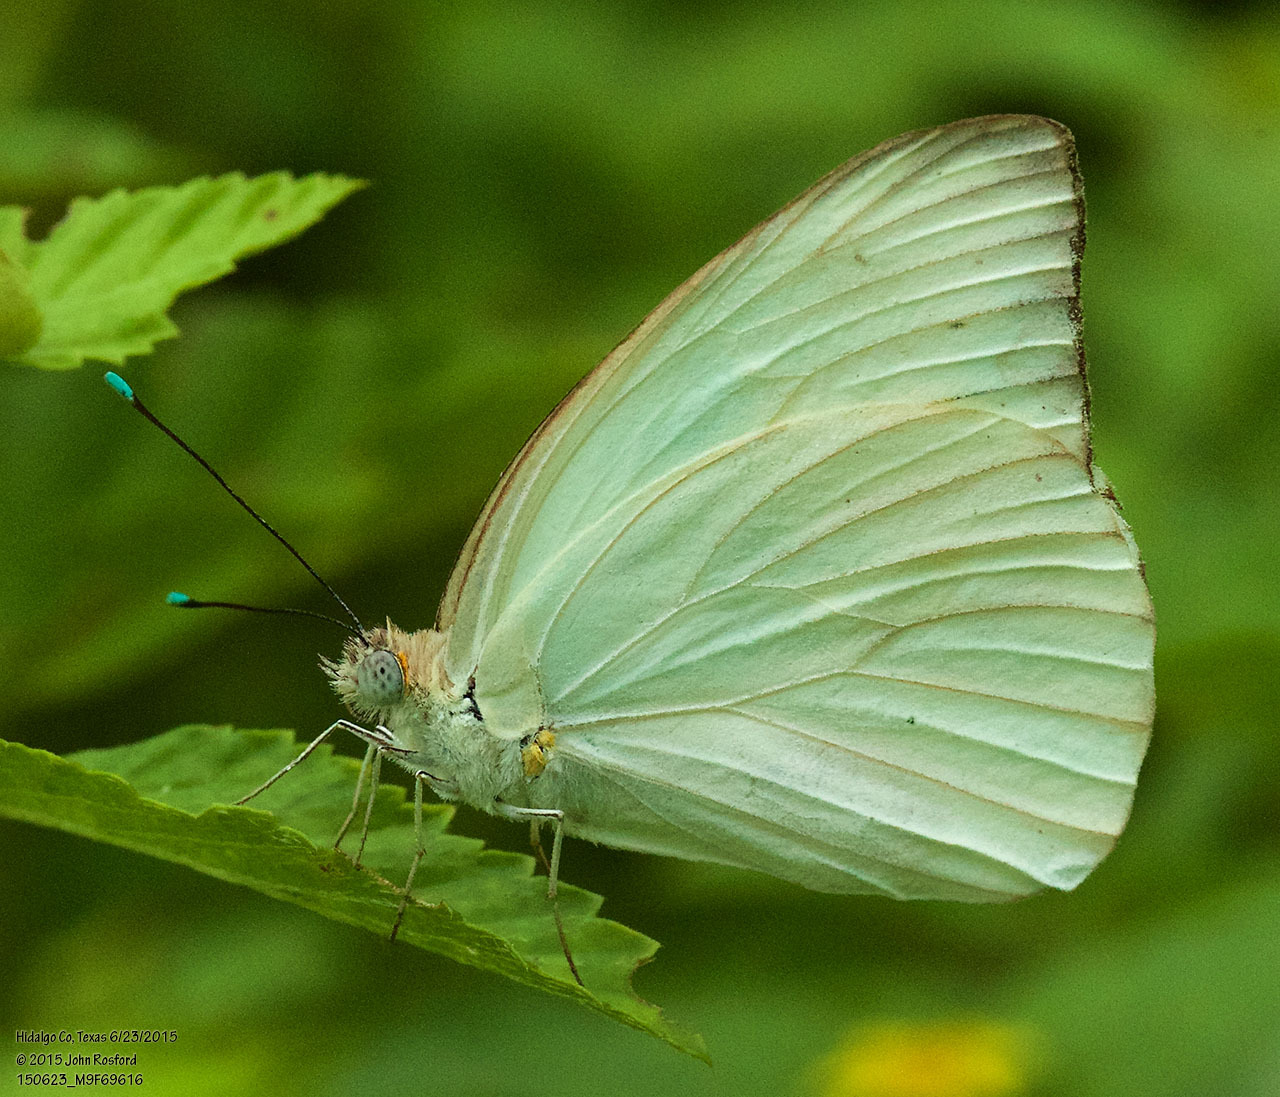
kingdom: Animalia
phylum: Arthropoda
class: Insecta
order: Lepidoptera
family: Pieridae
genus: Ascia
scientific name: Ascia monuste
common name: Great southern white
